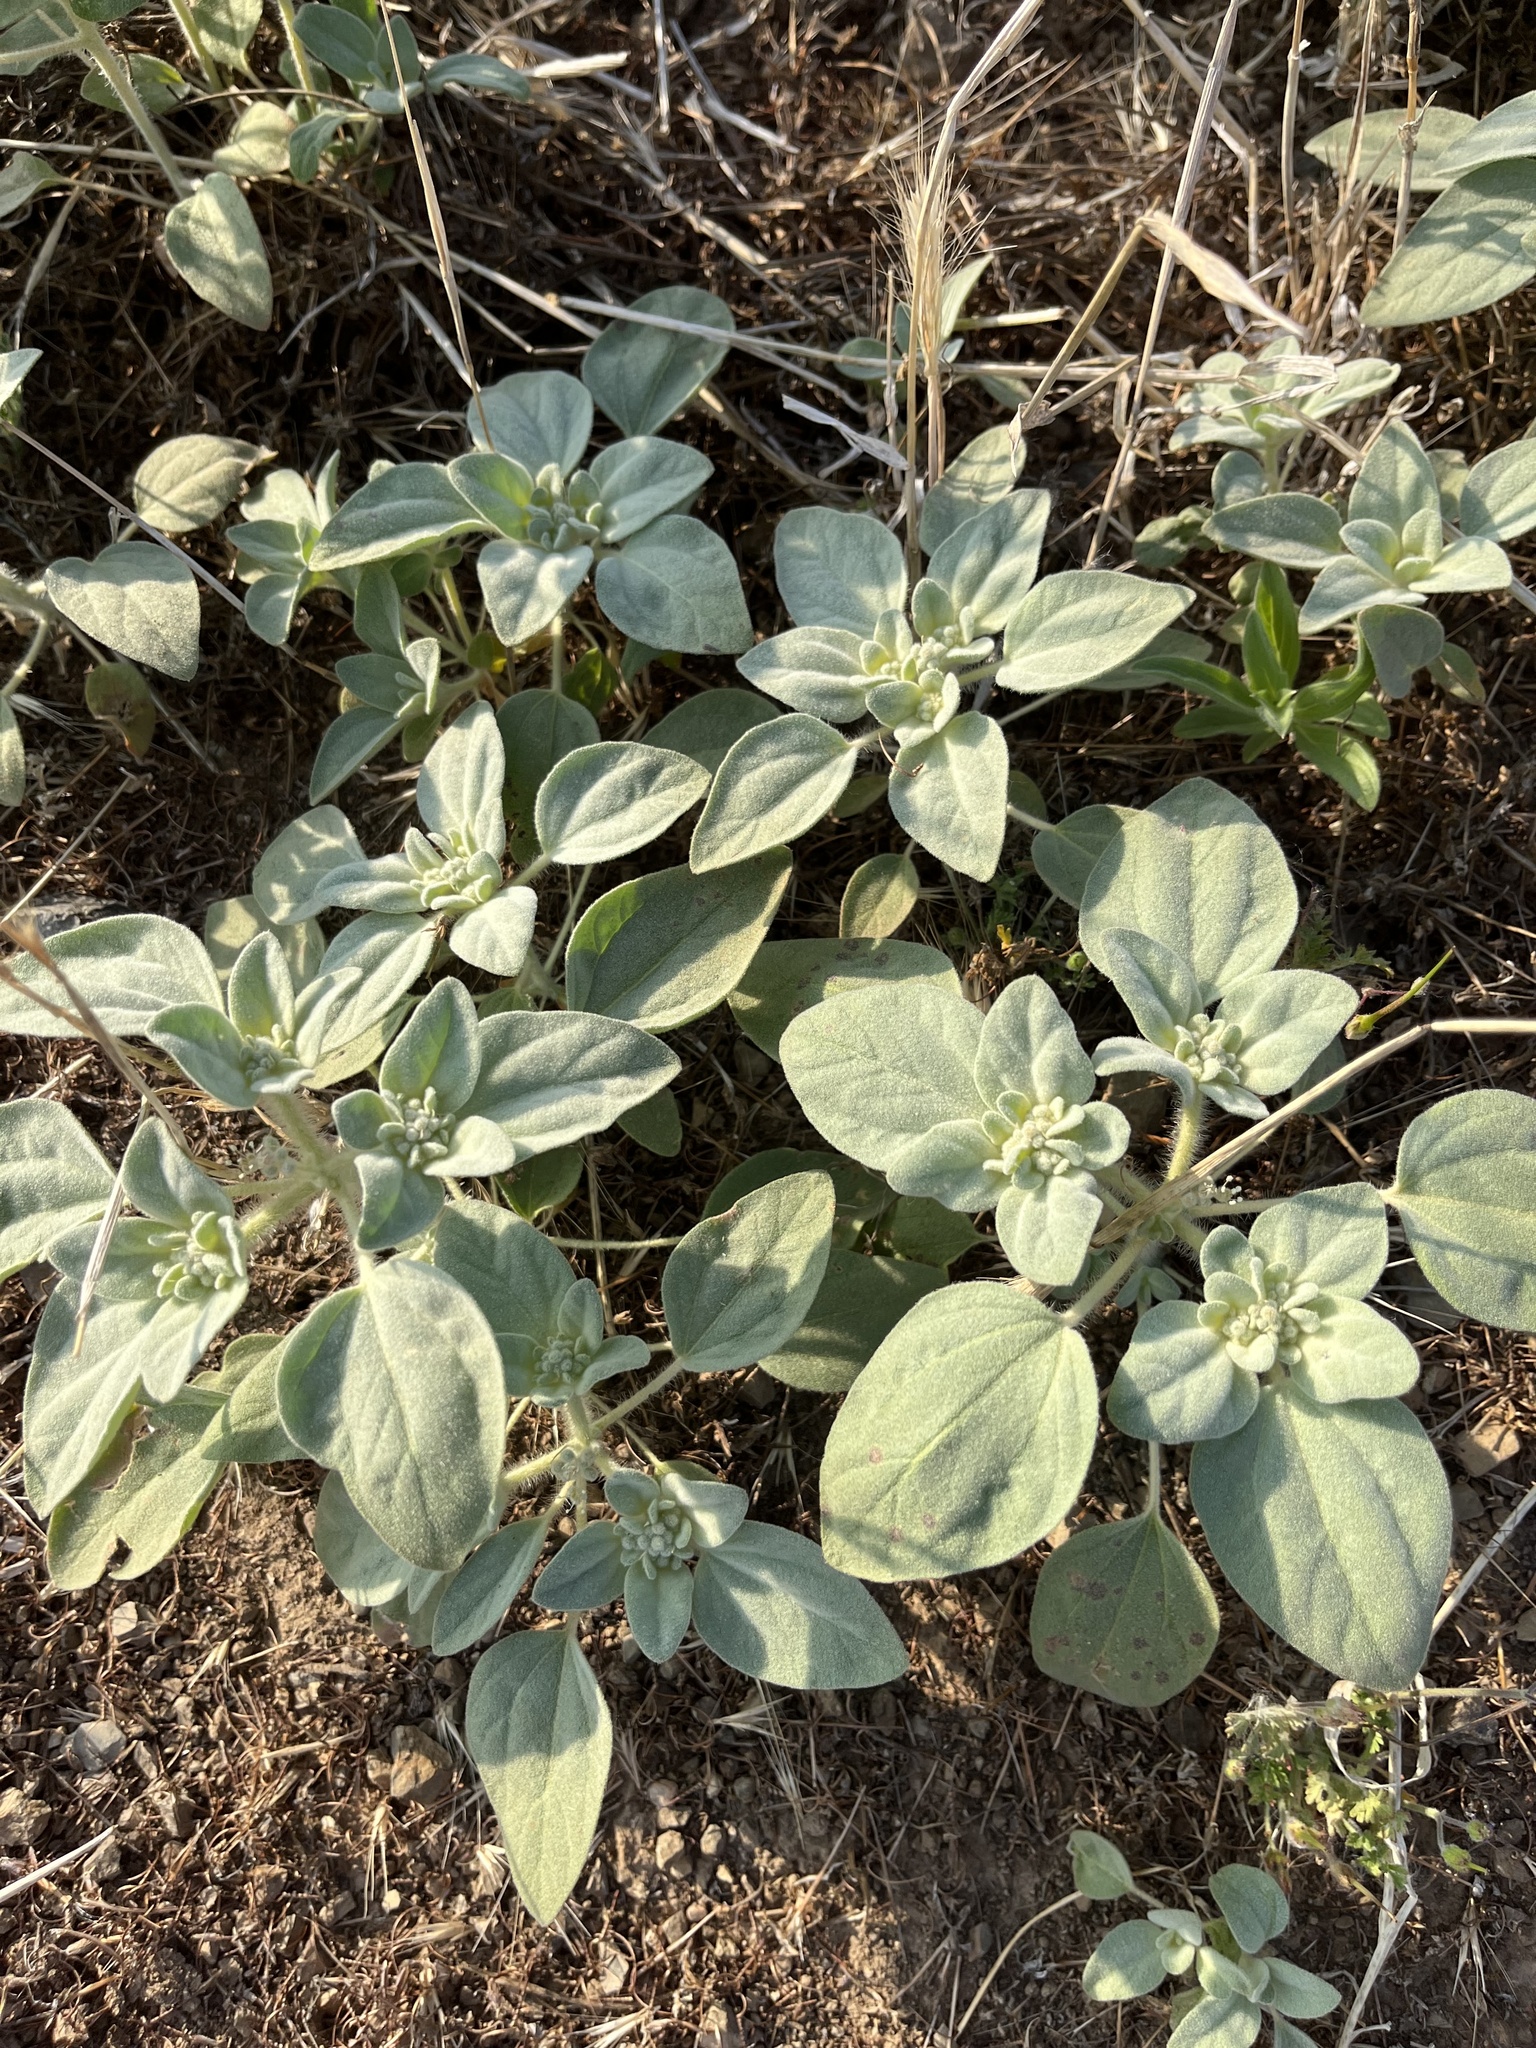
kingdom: Plantae
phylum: Tracheophyta
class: Magnoliopsida
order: Malpighiales
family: Euphorbiaceae
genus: Croton
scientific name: Croton setiger
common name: Dove weed
